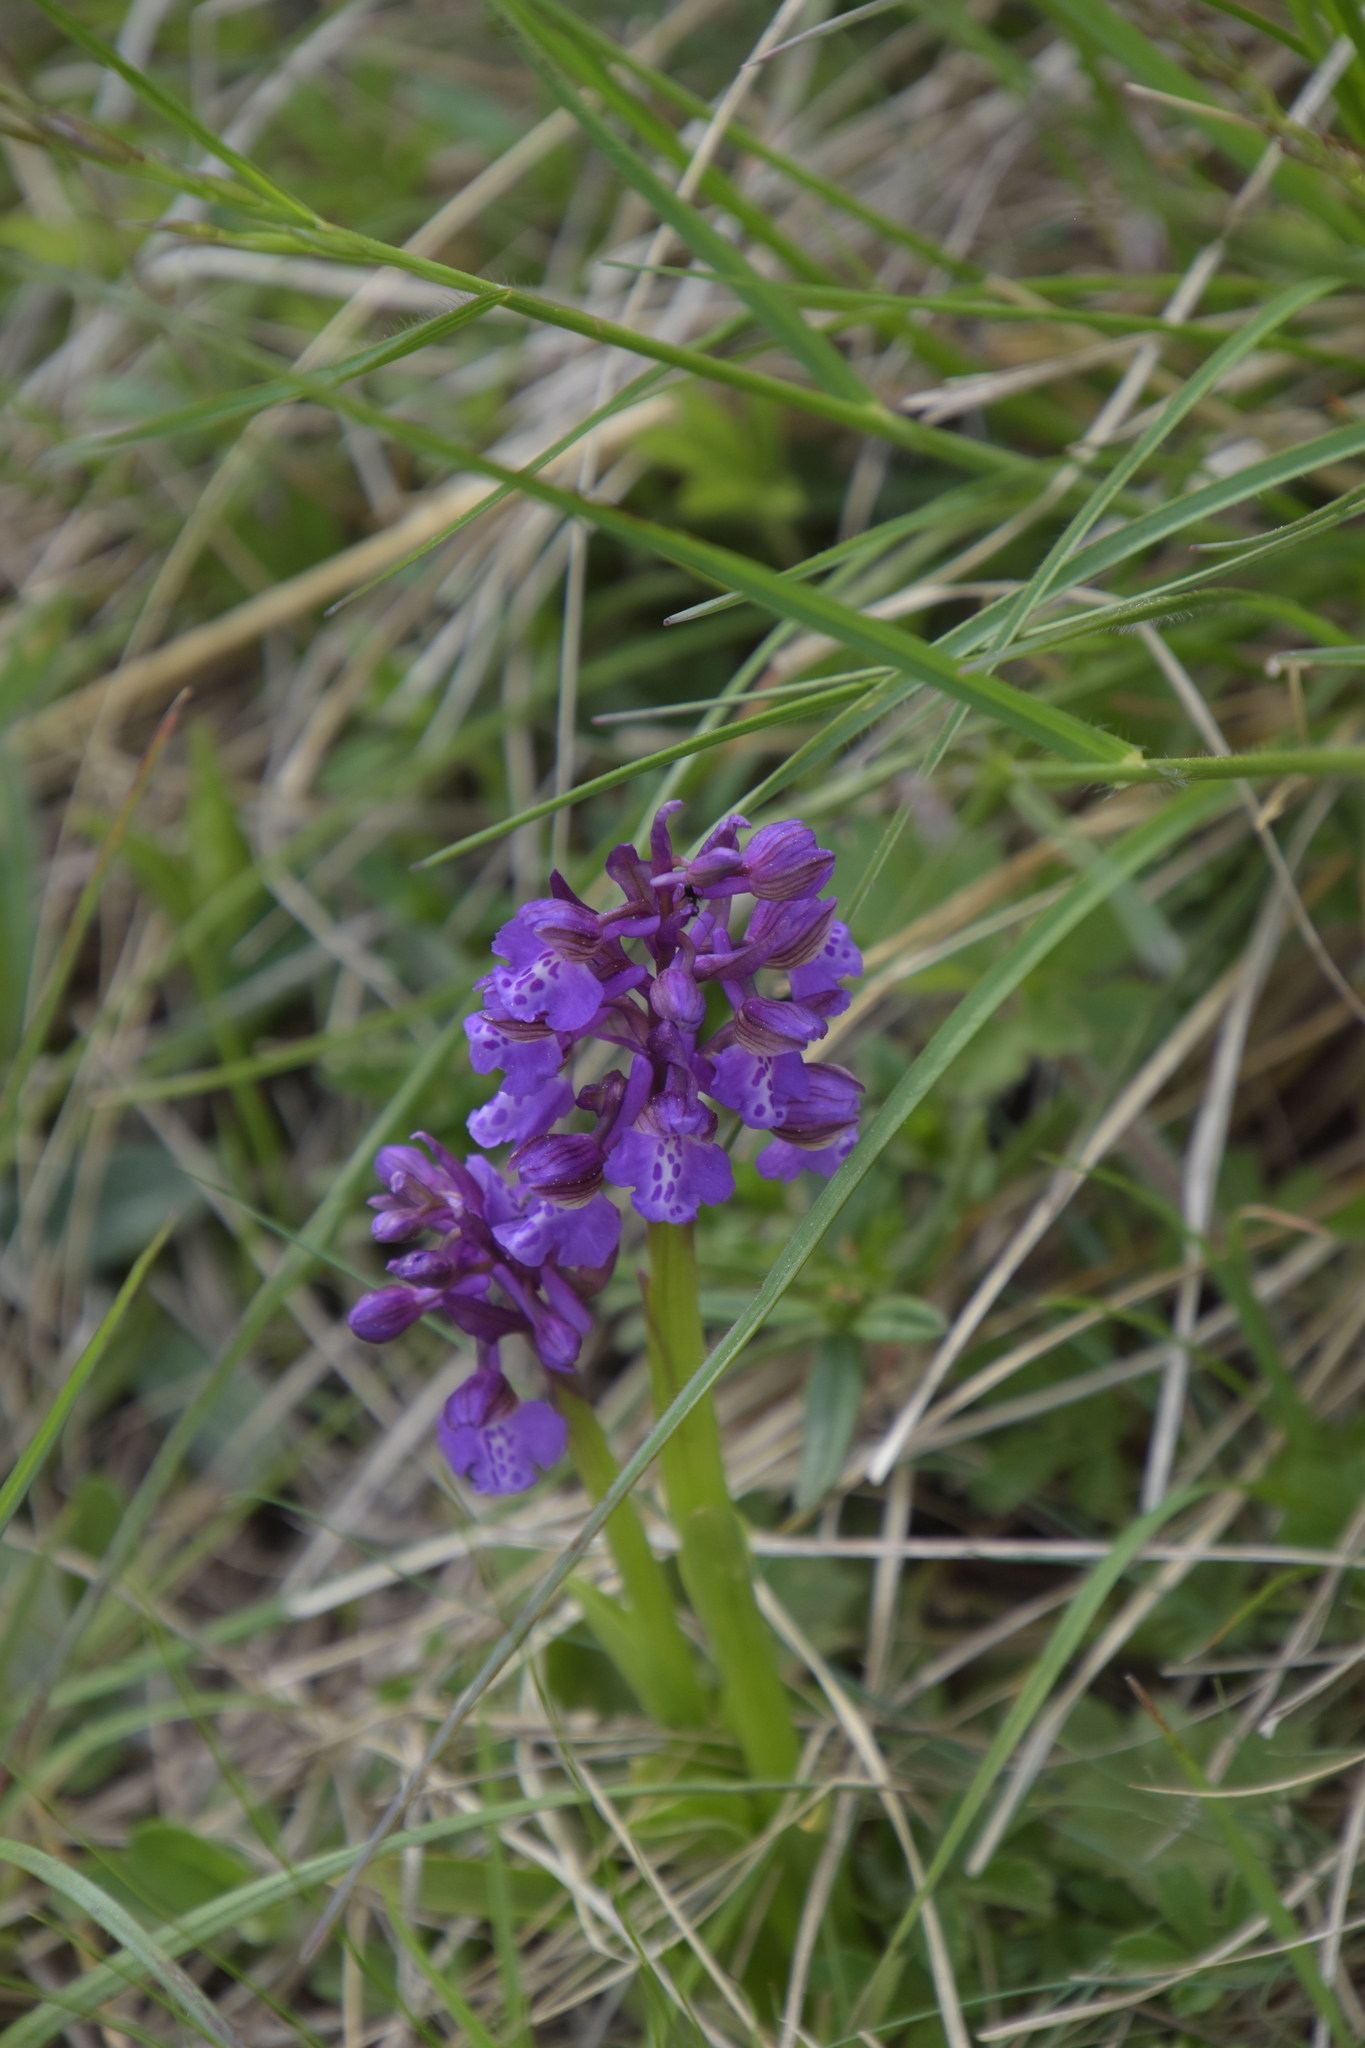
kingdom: Plantae
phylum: Tracheophyta
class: Liliopsida
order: Asparagales
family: Orchidaceae
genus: Anacamptis
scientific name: Anacamptis morio
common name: Green-winged orchid
